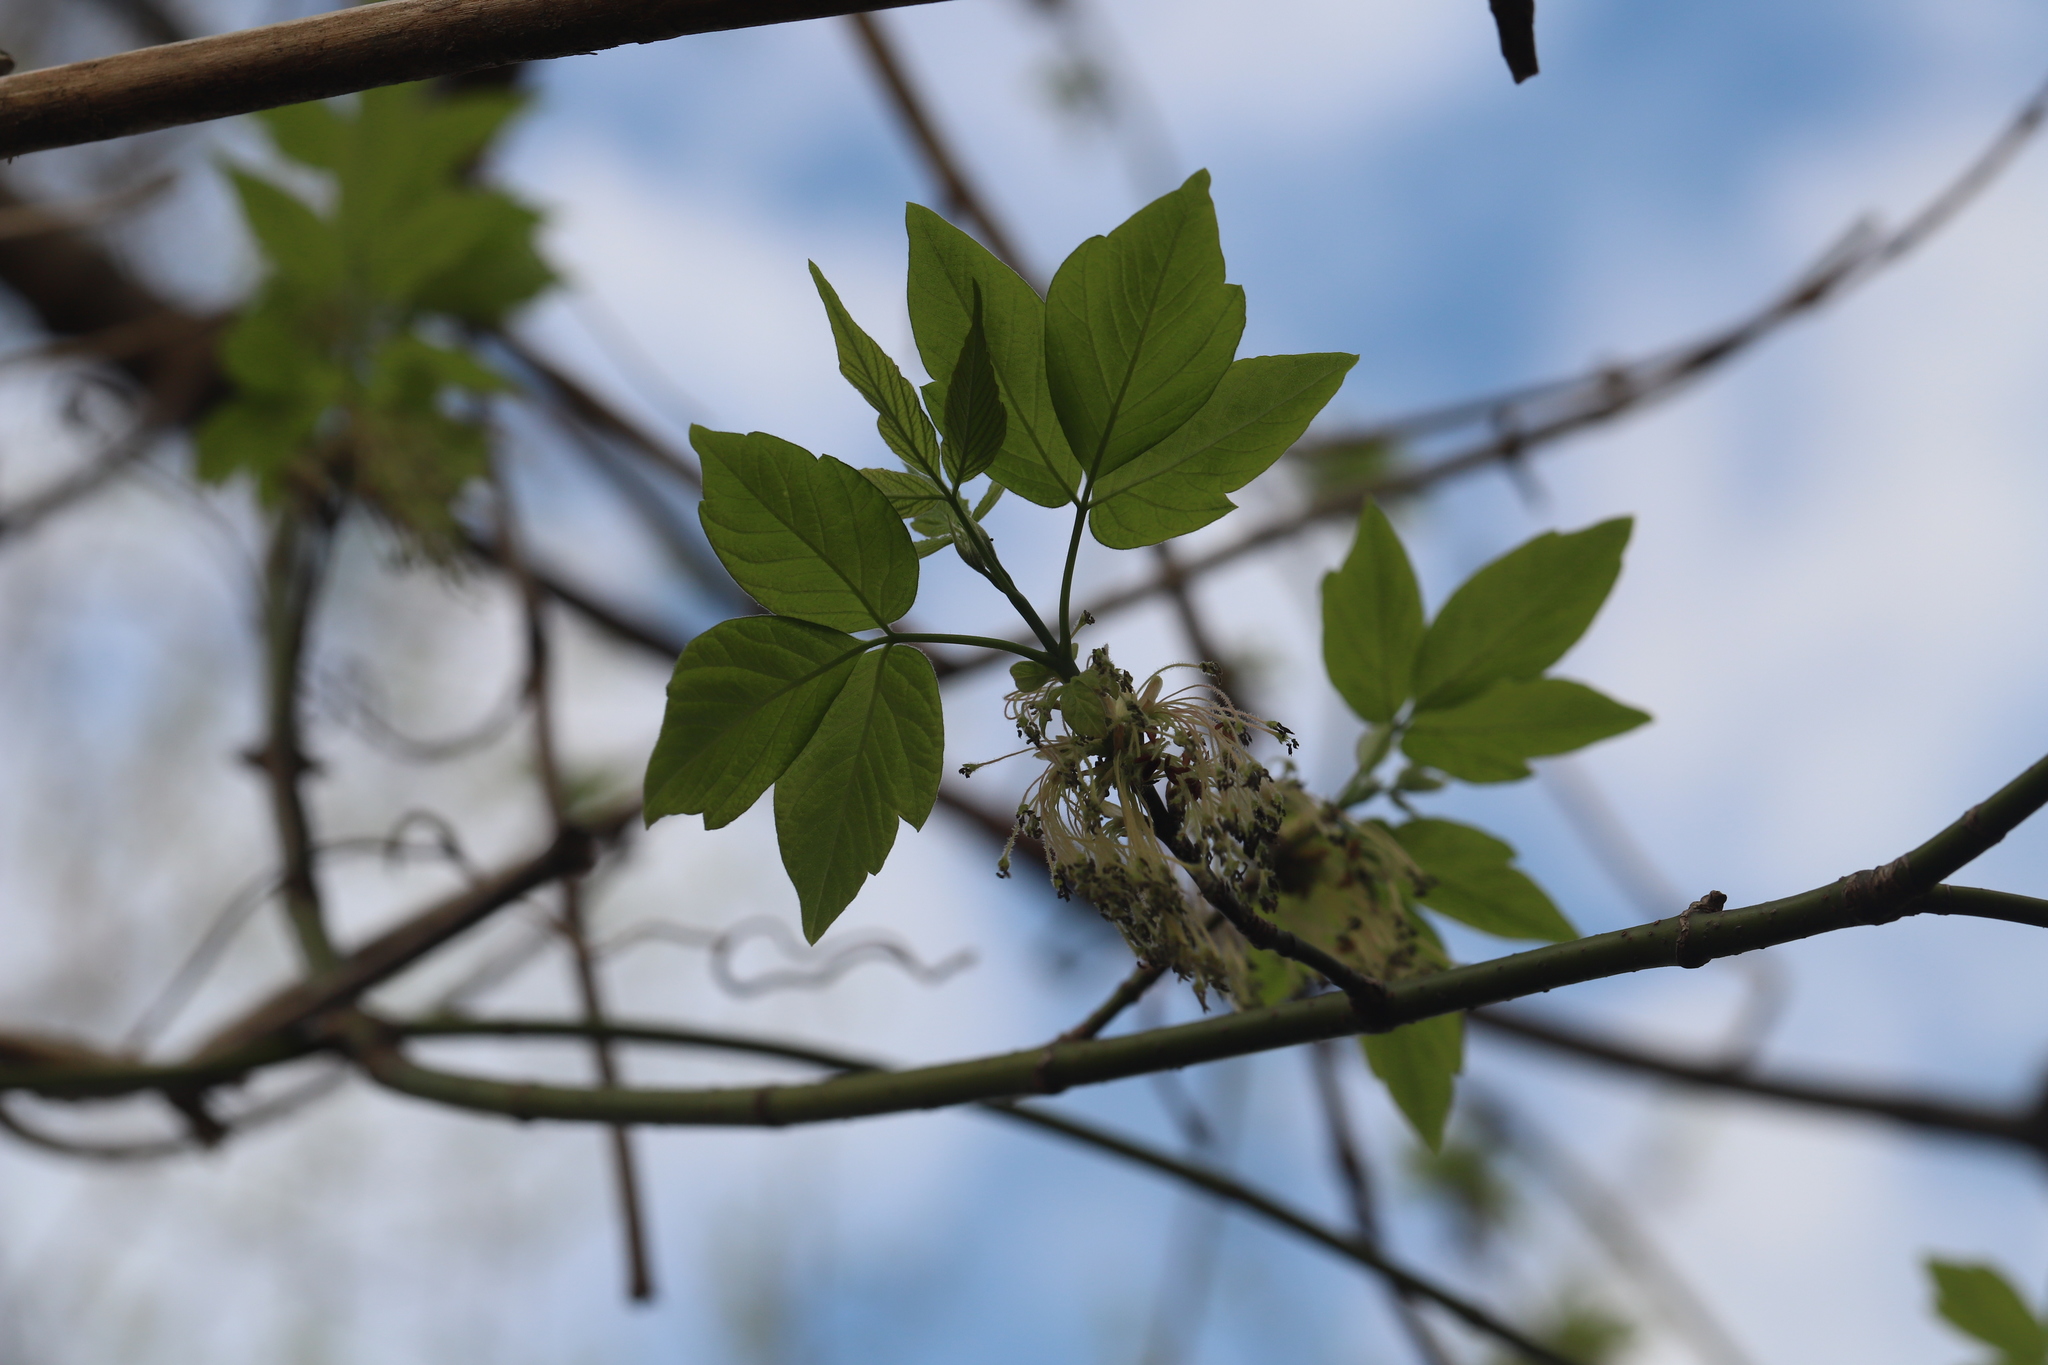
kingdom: Plantae
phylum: Tracheophyta
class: Magnoliopsida
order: Sapindales
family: Sapindaceae
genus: Acer
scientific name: Acer negundo
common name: Ashleaf maple
